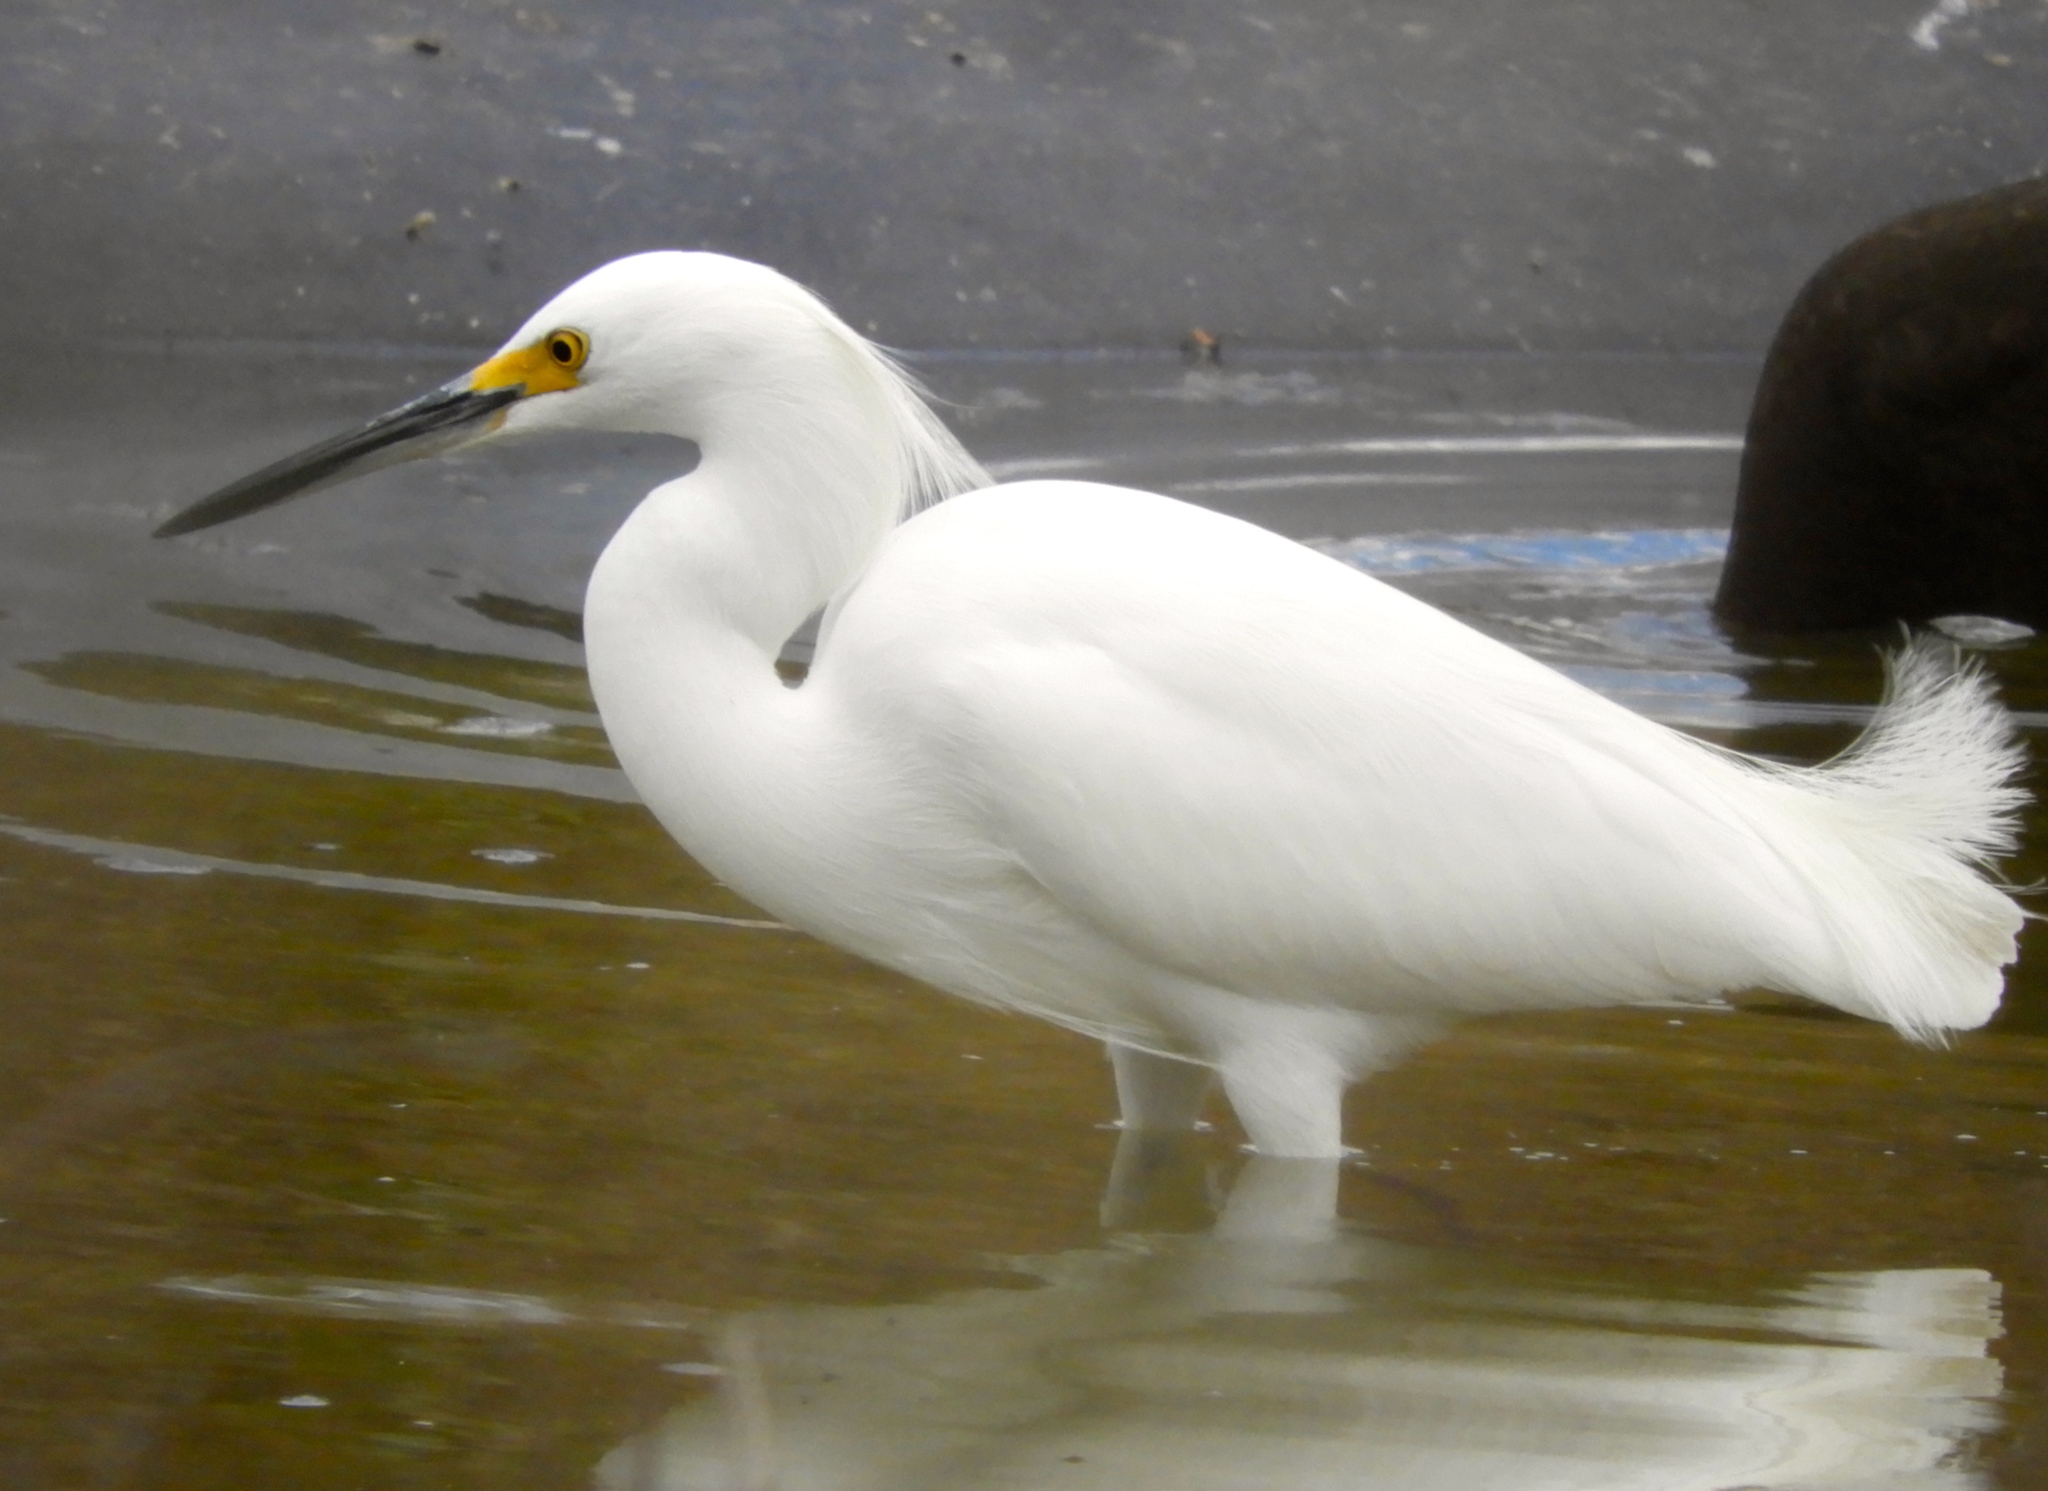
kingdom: Animalia
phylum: Chordata
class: Aves
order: Pelecaniformes
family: Ardeidae
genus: Egretta
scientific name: Egretta thula
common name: Snowy egret
